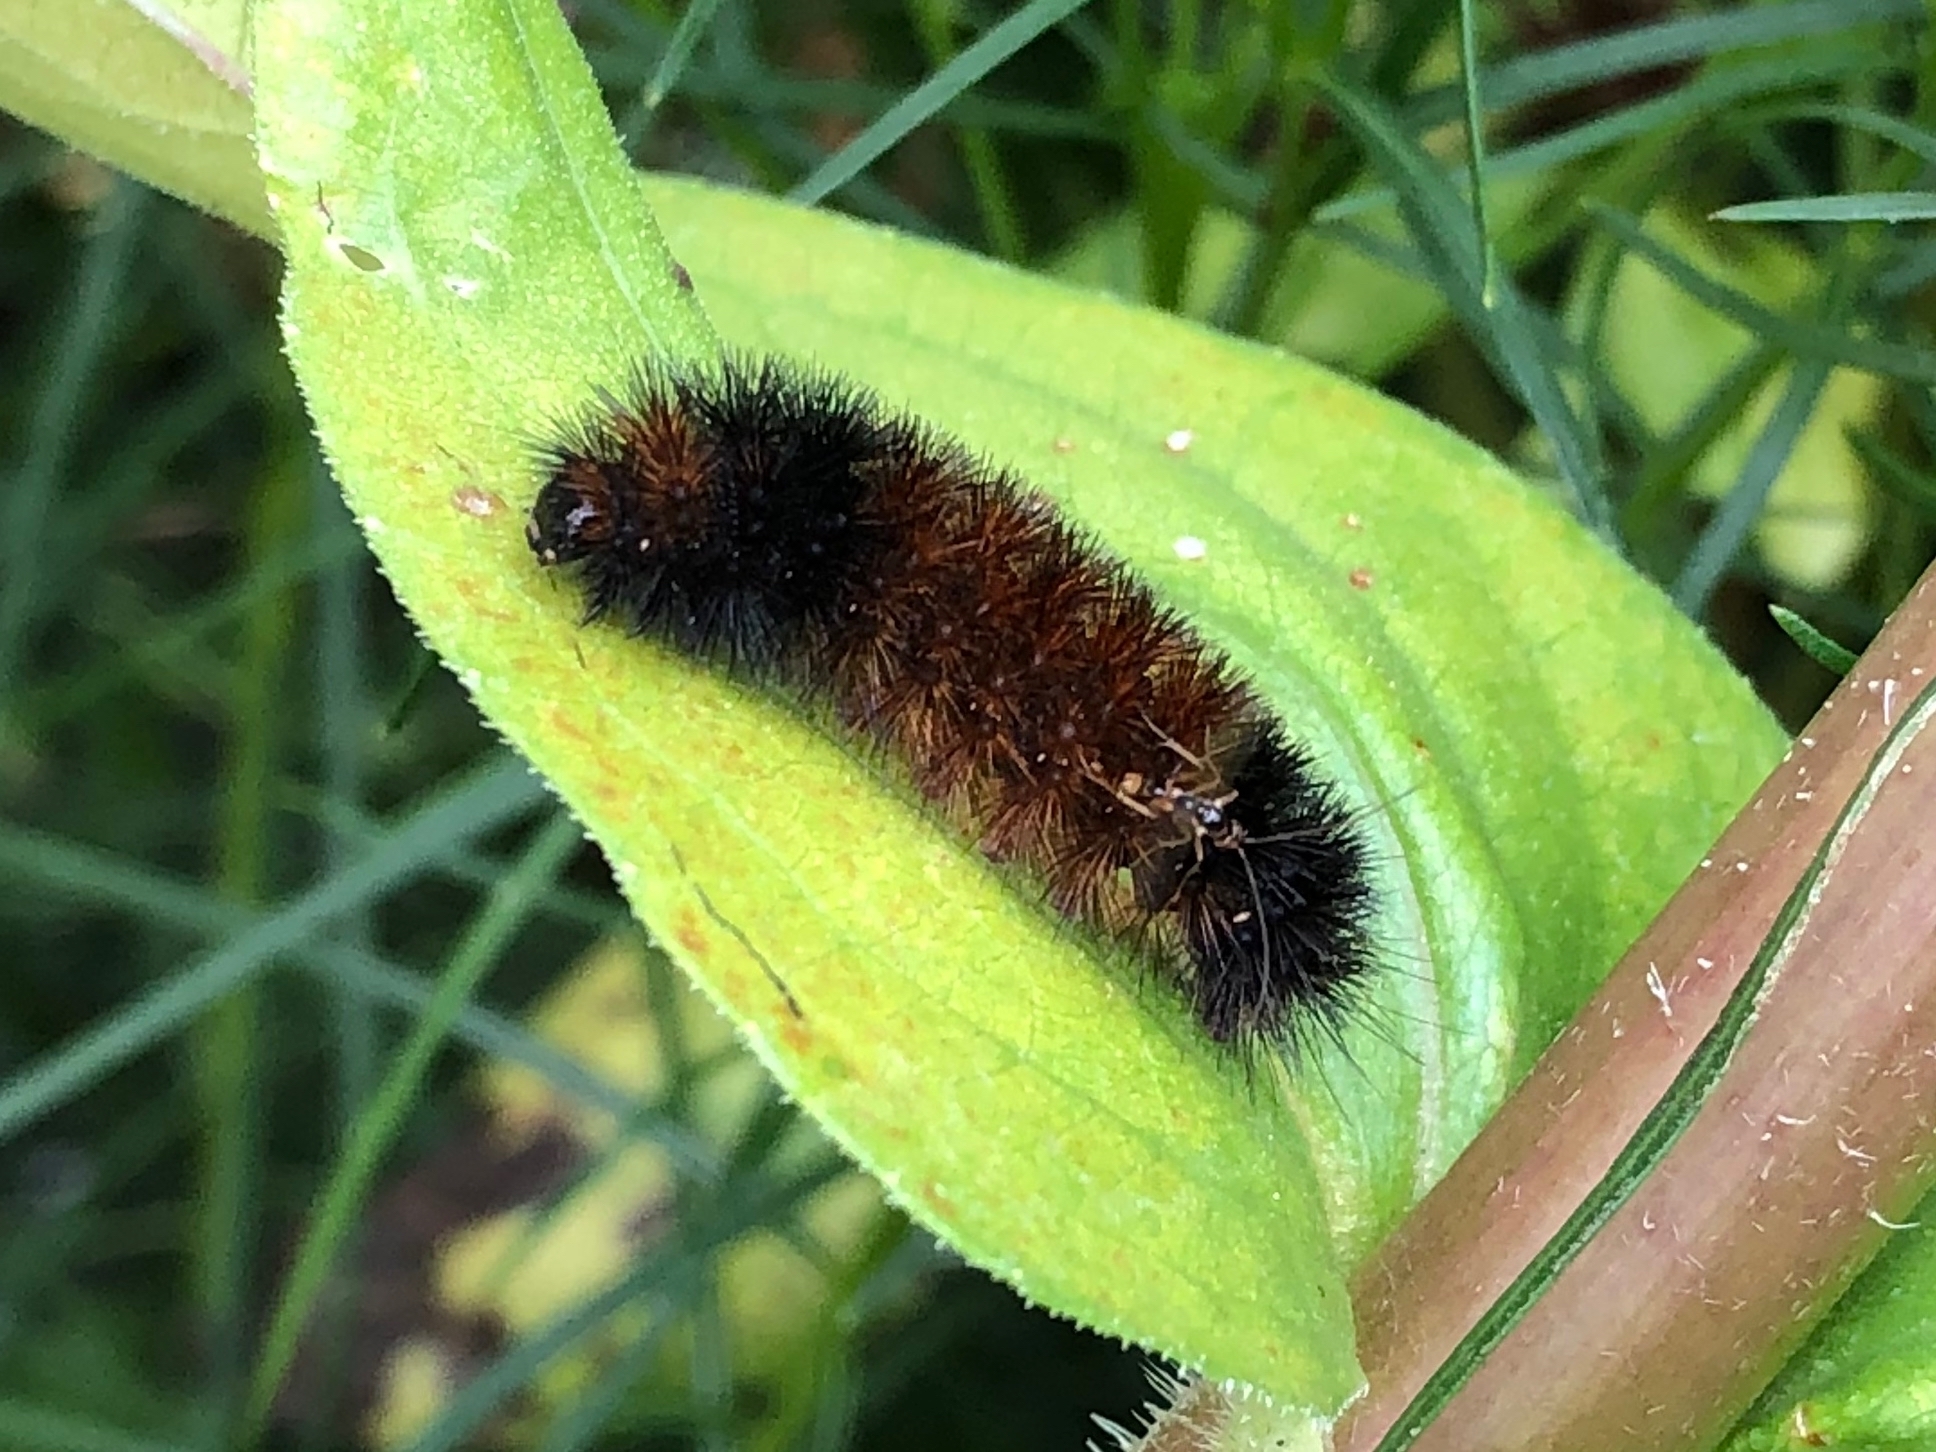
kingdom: Animalia
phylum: Arthropoda
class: Insecta
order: Lepidoptera
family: Erebidae
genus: Pyrrharctia
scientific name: Pyrrharctia isabella
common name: Isabella tiger moth
